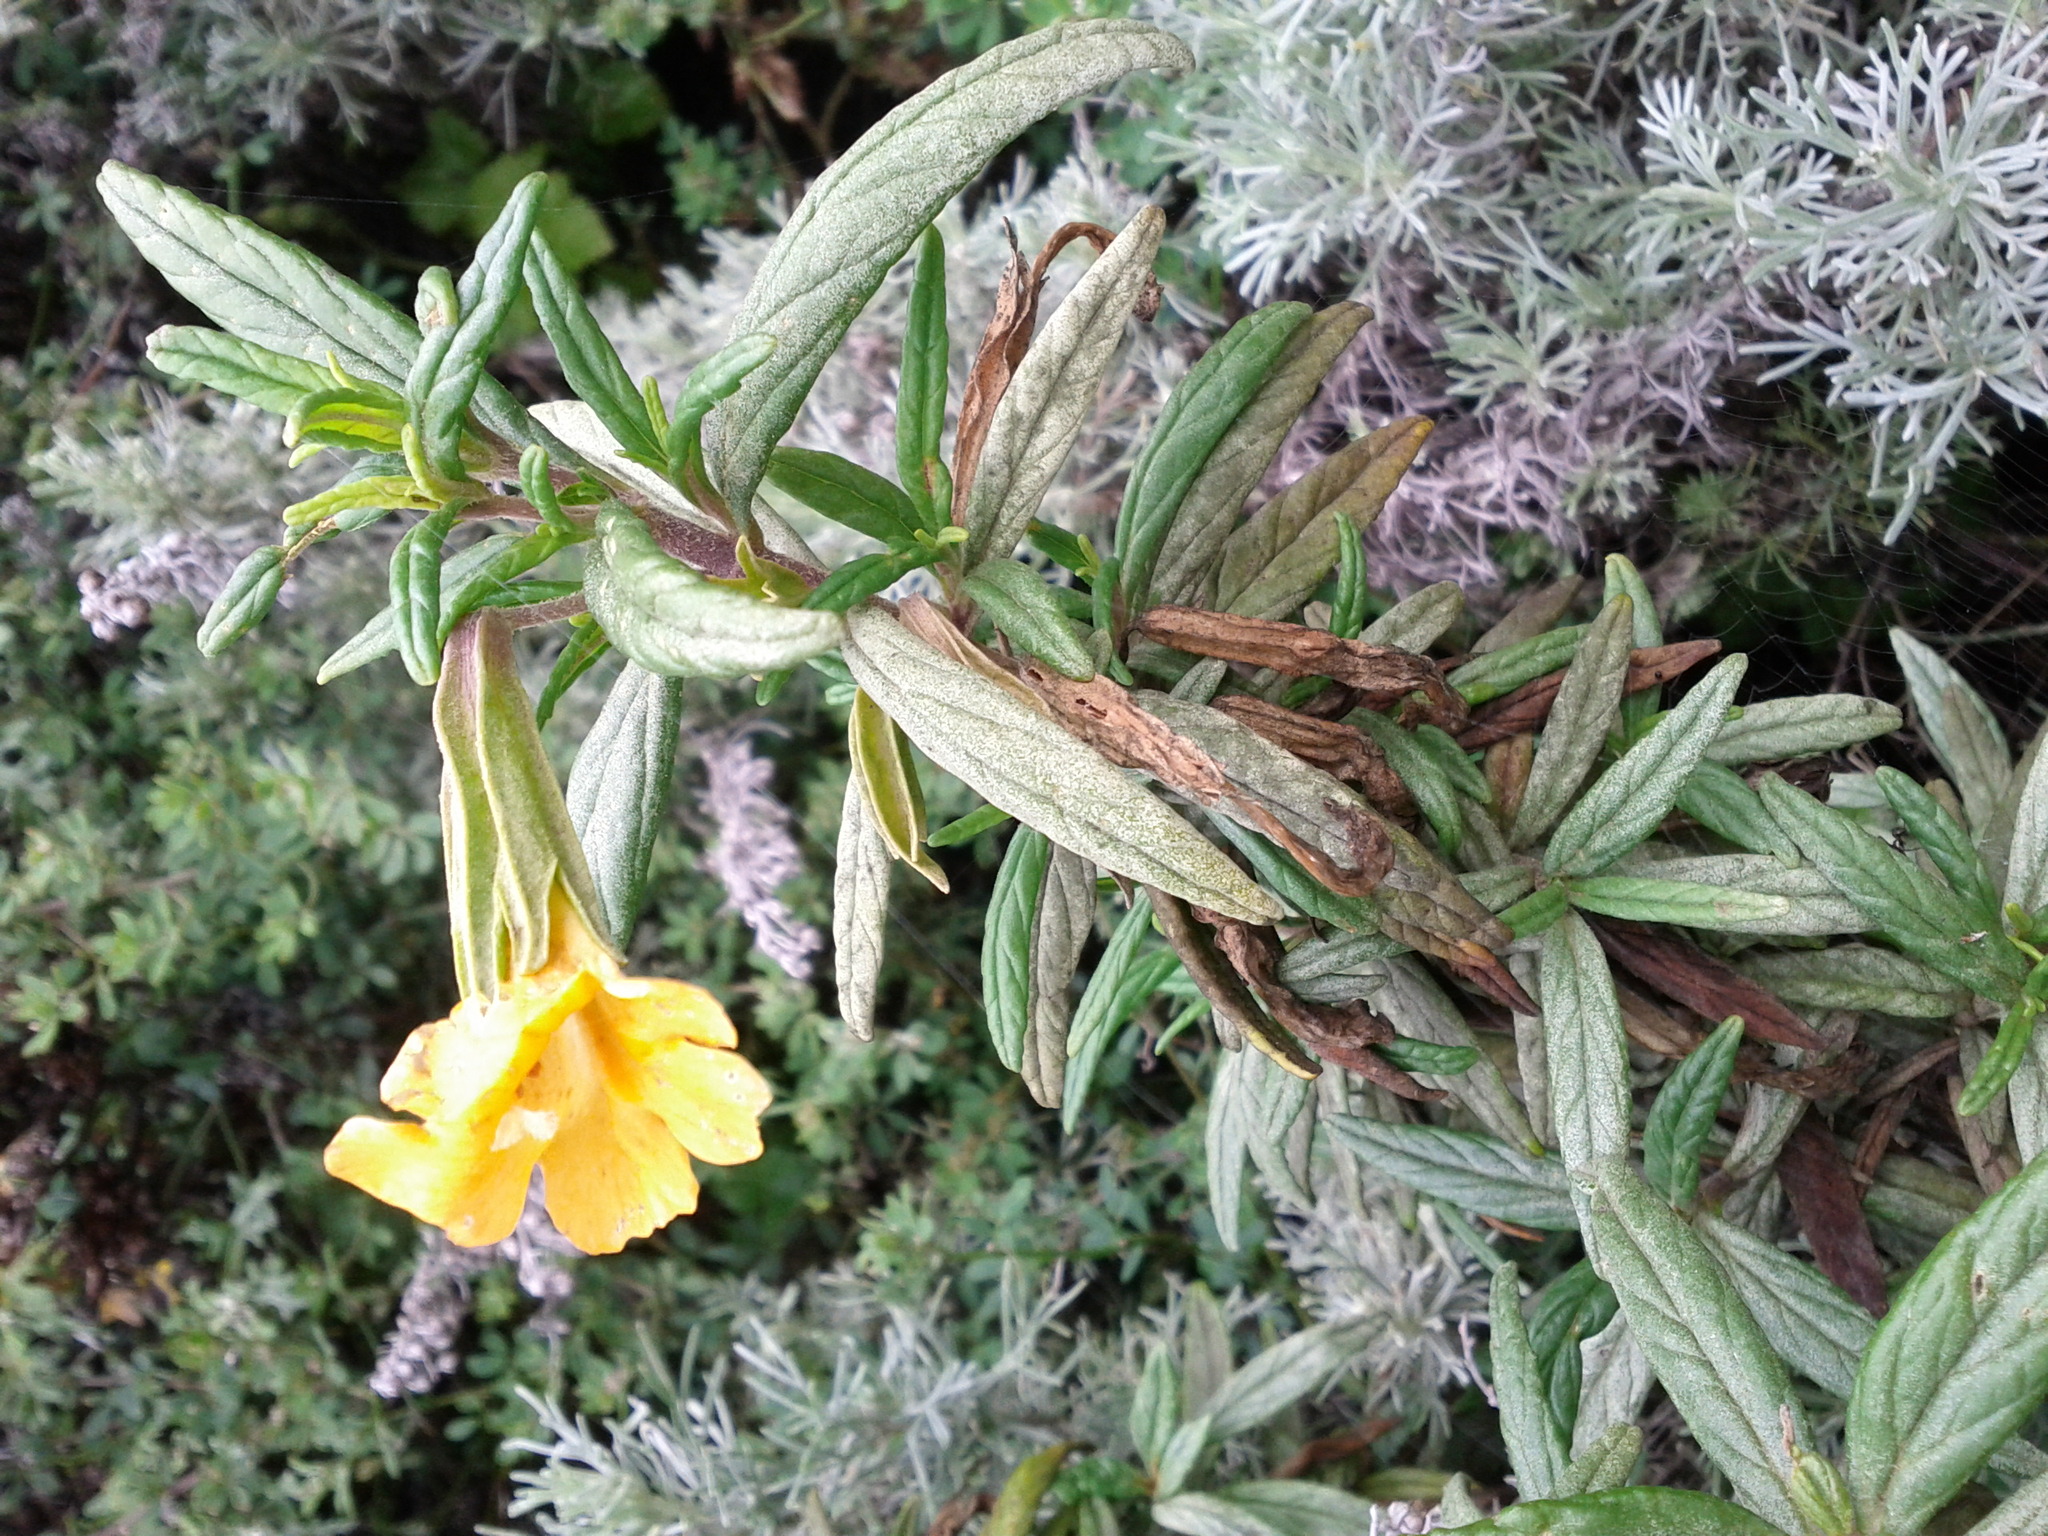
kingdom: Plantae
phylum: Tracheophyta
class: Magnoliopsida
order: Lamiales
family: Phrymaceae
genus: Diplacus
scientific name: Diplacus aurantiacus
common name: Bush monkey-flower
